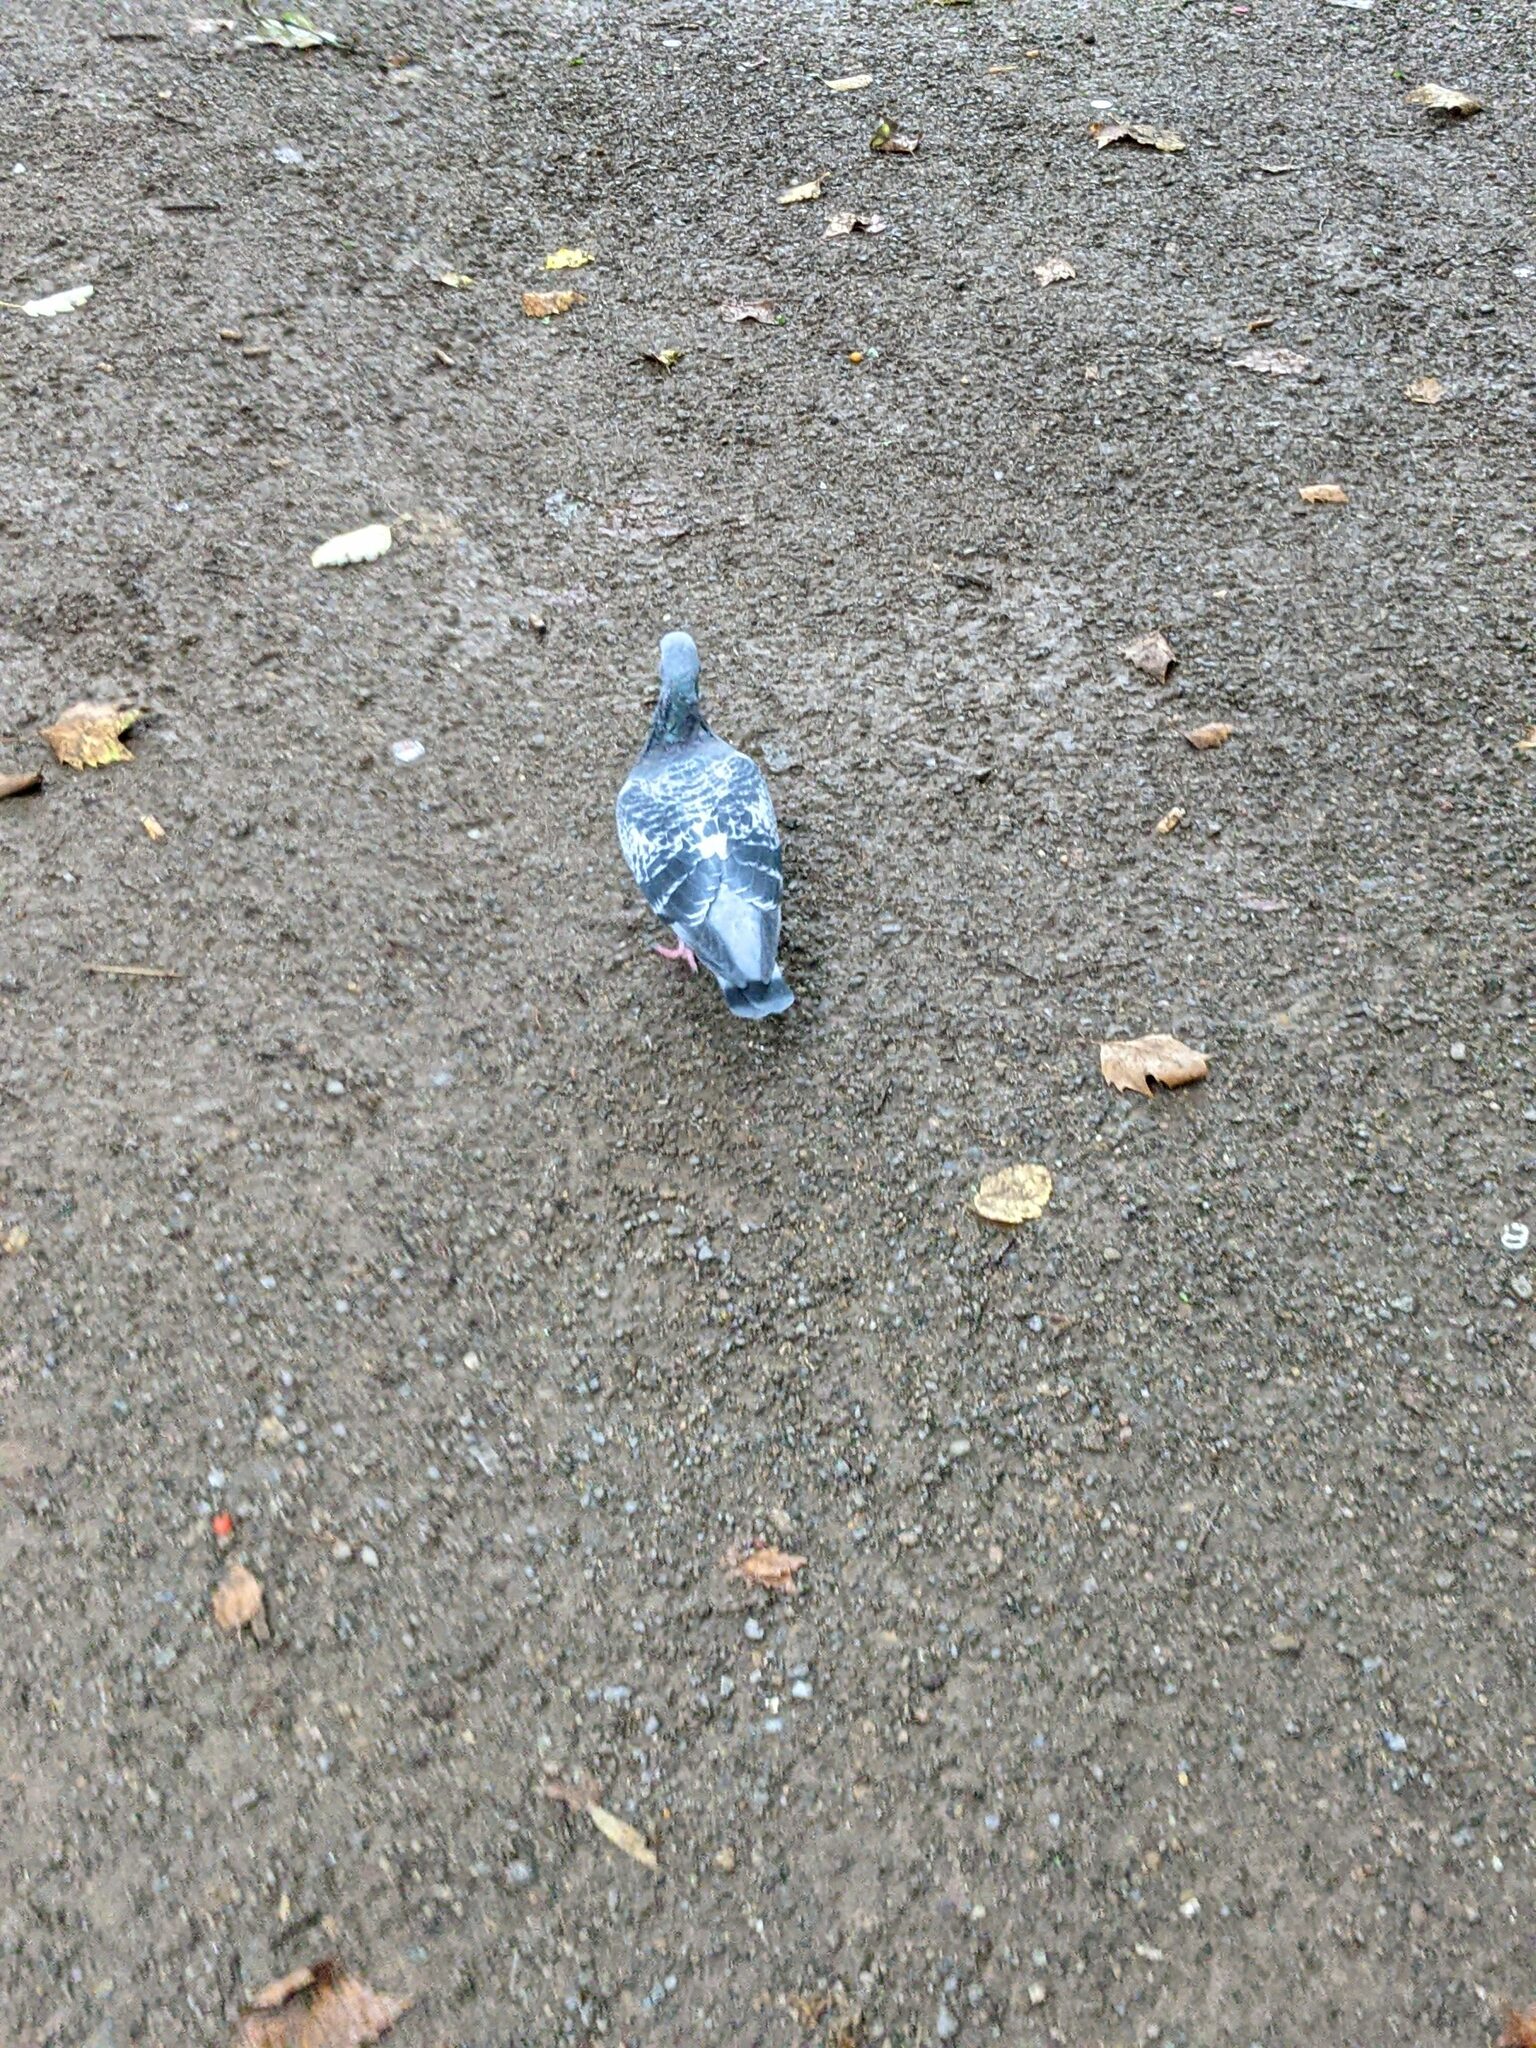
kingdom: Animalia
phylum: Chordata
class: Aves
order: Columbiformes
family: Columbidae
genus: Columba
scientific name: Columba livia
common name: Rock pigeon
